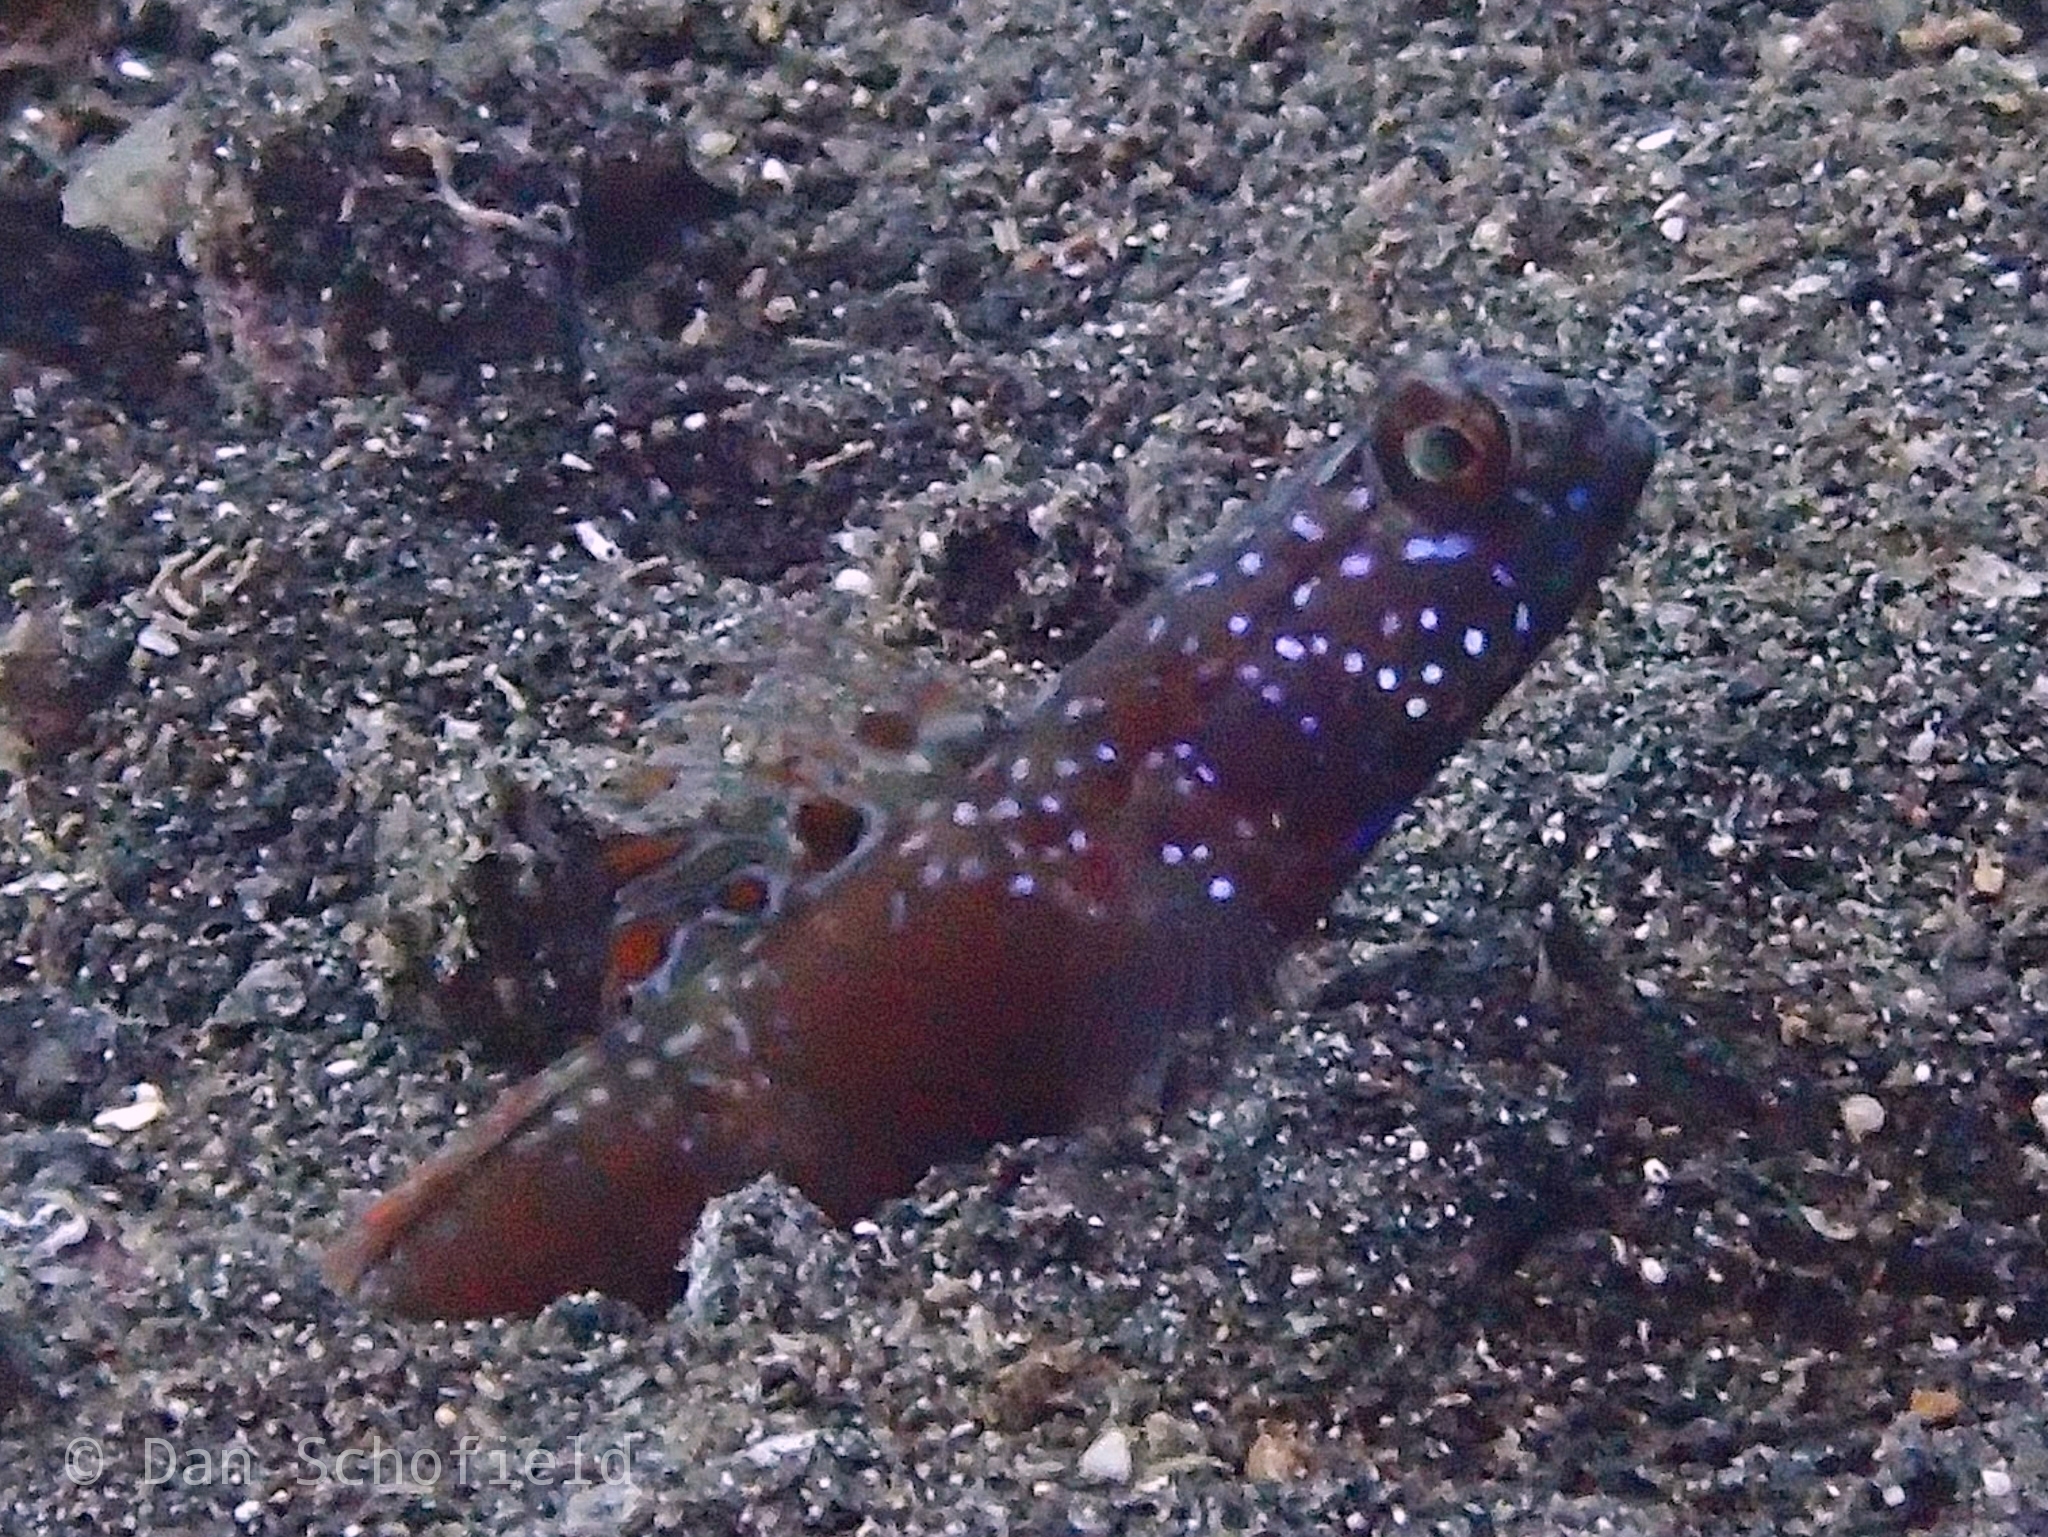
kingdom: Animalia
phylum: Chordata
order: Perciformes
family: Gobiidae
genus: Amblyeleotris
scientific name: Amblyeleotris latifasciata
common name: Broad-band prawn-goby
